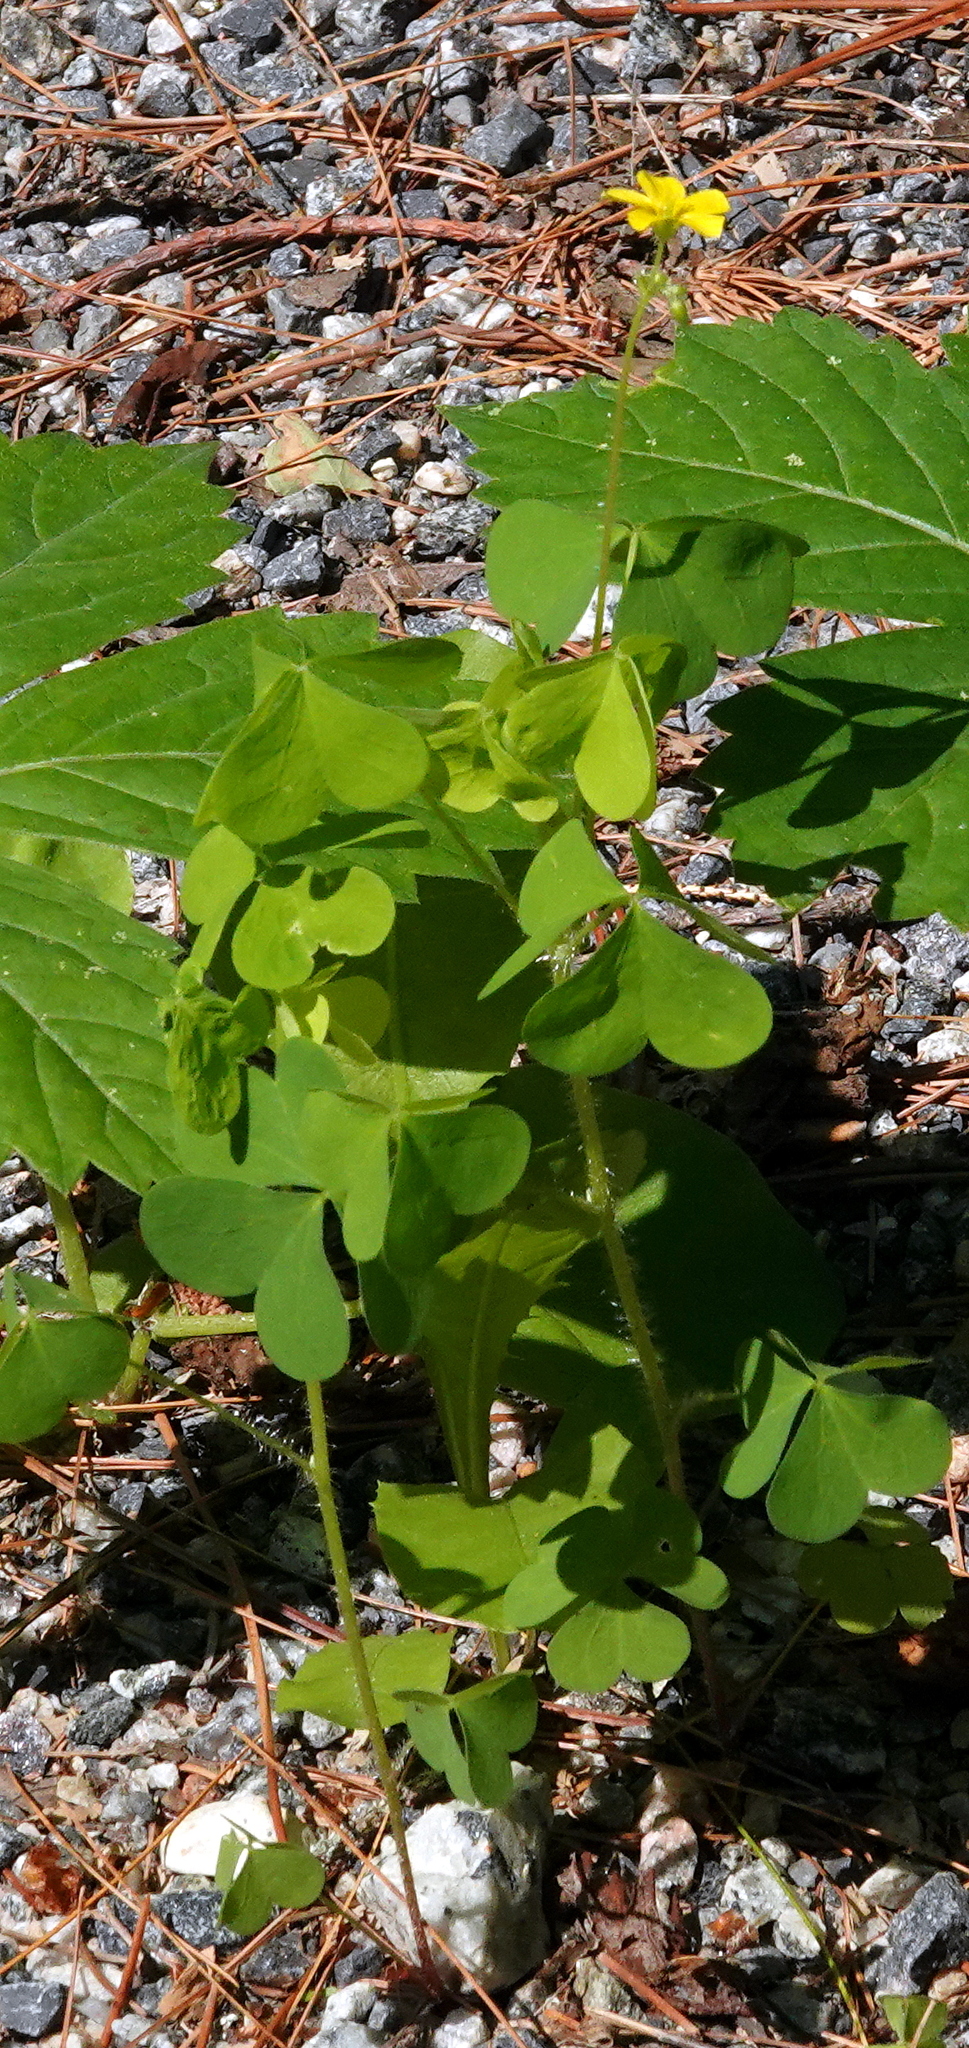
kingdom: Plantae
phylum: Tracheophyta
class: Magnoliopsida
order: Oxalidales
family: Oxalidaceae
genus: Oxalis
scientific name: Oxalis stricta
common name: Upright yellow-sorrel
